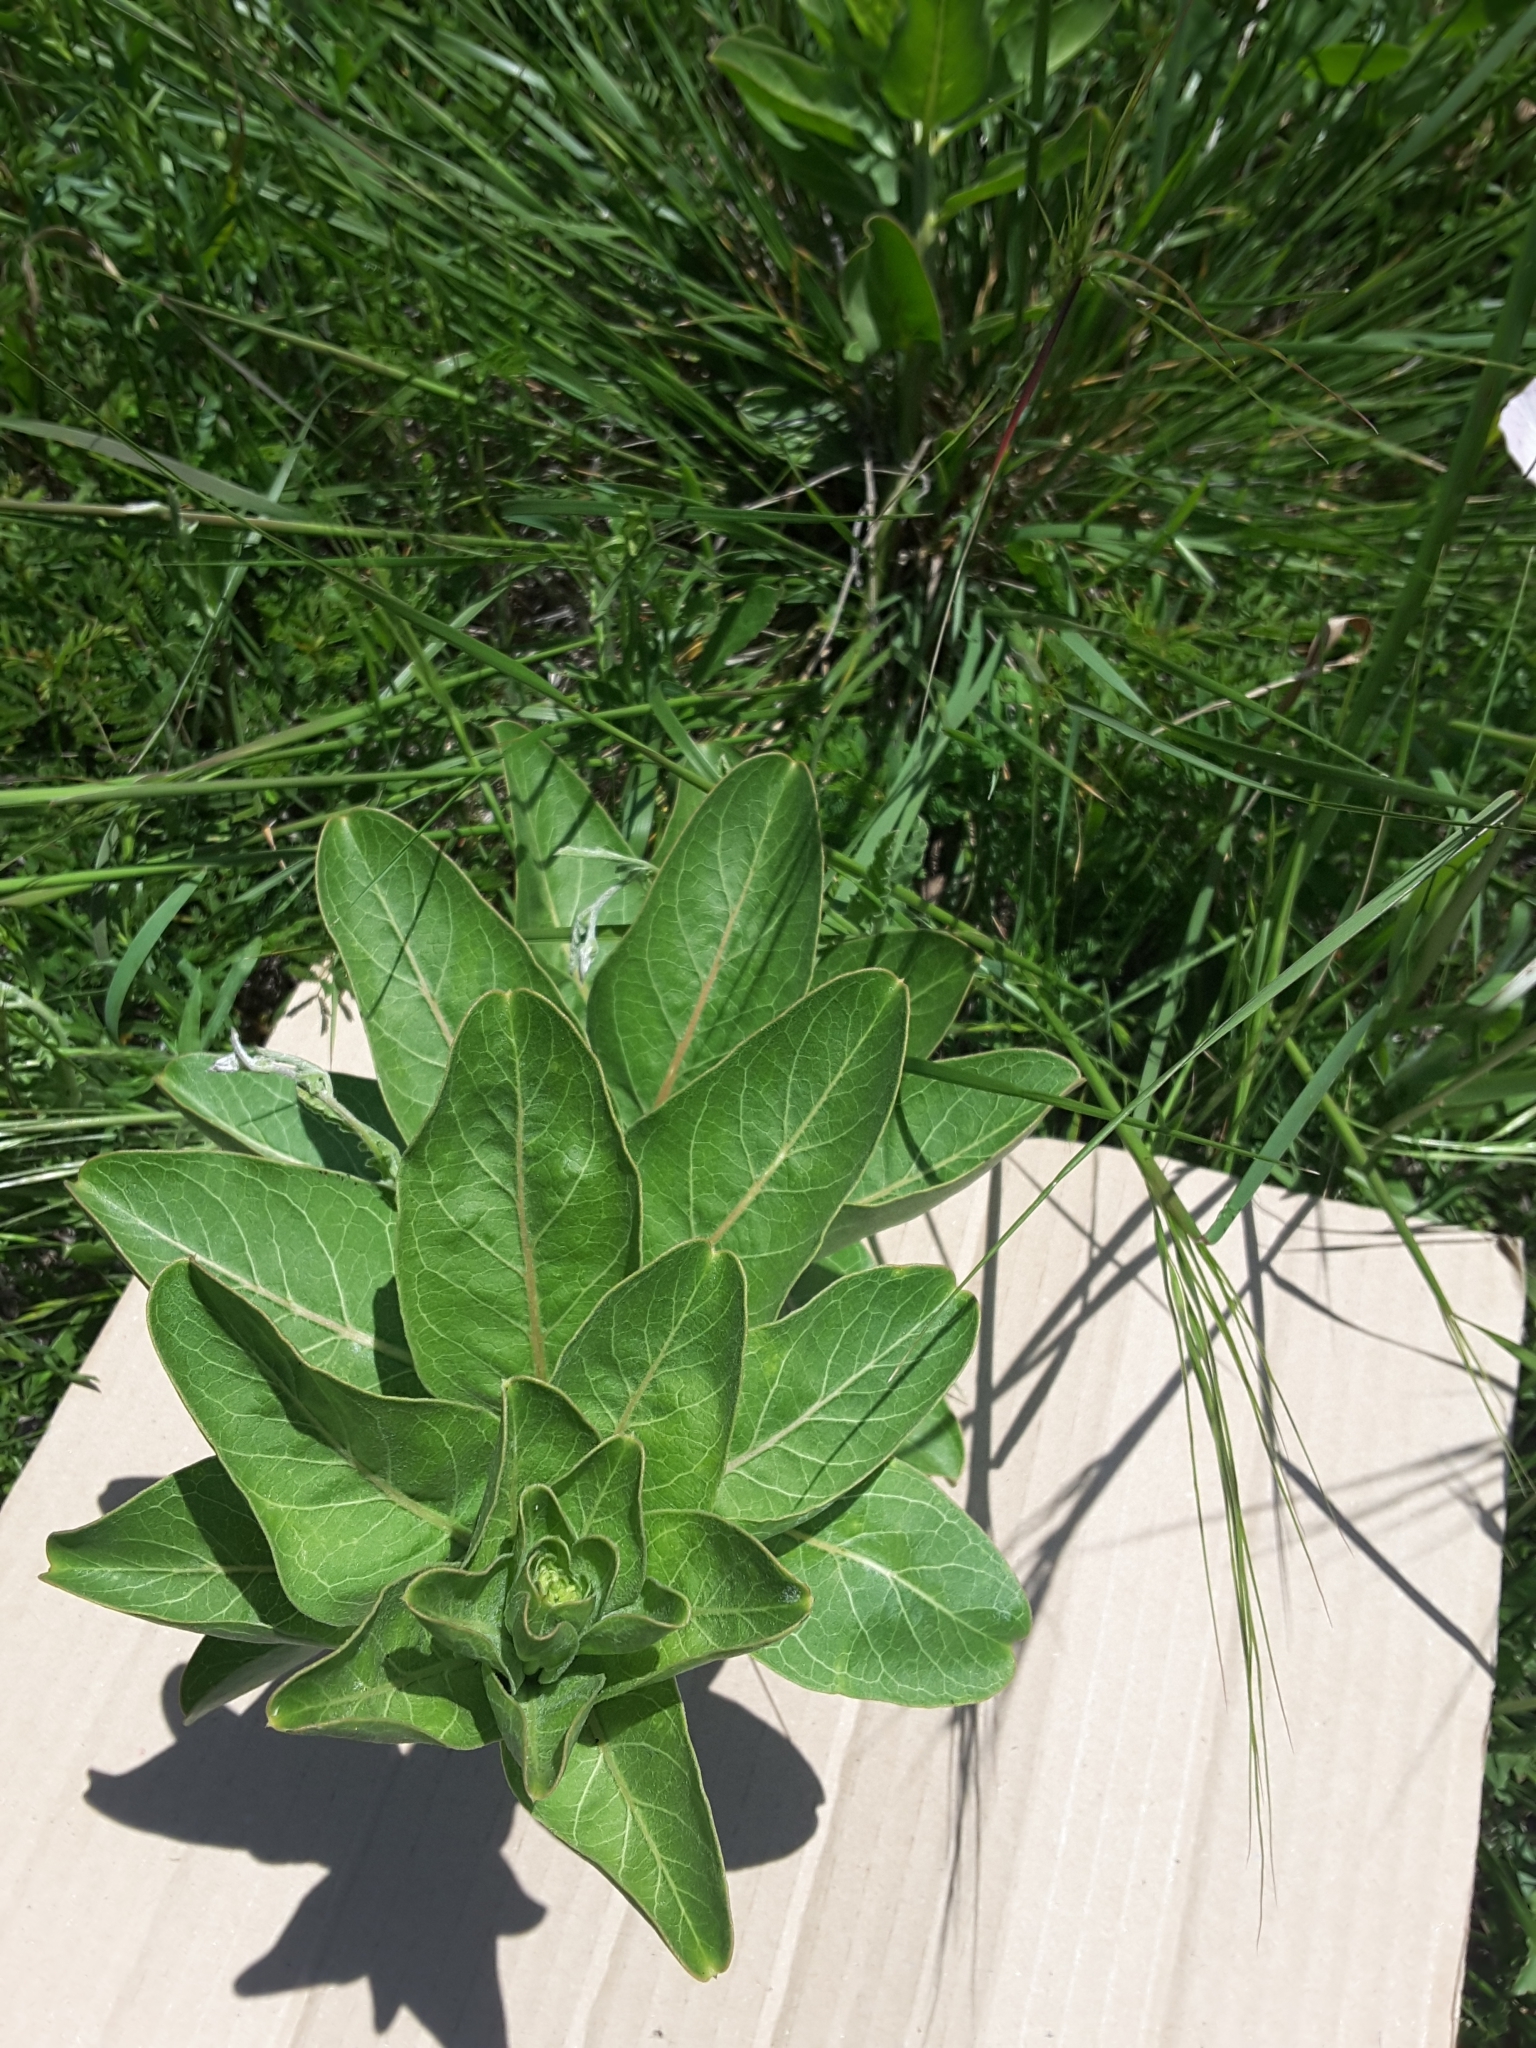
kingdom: Plantae
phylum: Tracheophyta
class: Magnoliopsida
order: Gentianales
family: Apocynaceae
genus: Asclepias
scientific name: Asclepias viridis
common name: Antelope-horns
